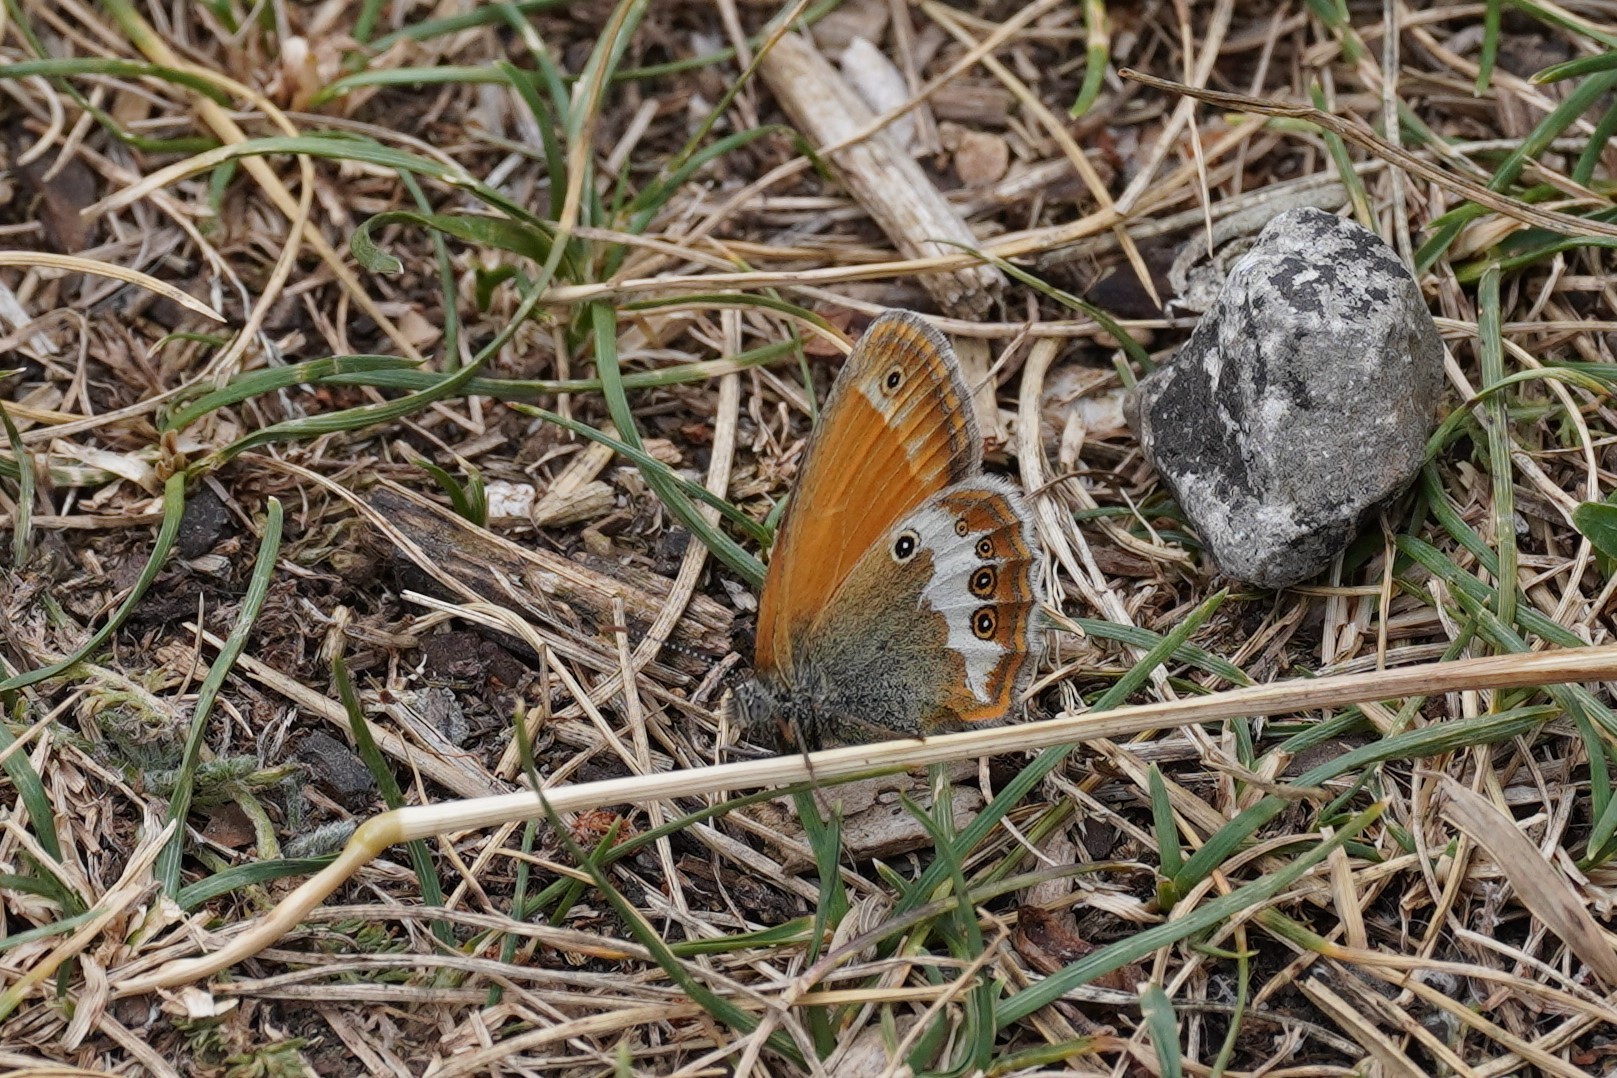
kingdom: Animalia
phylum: Arthropoda
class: Insecta
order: Lepidoptera
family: Nymphalidae
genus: Coenonympha
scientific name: Coenonympha arcania
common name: Pearly heath
